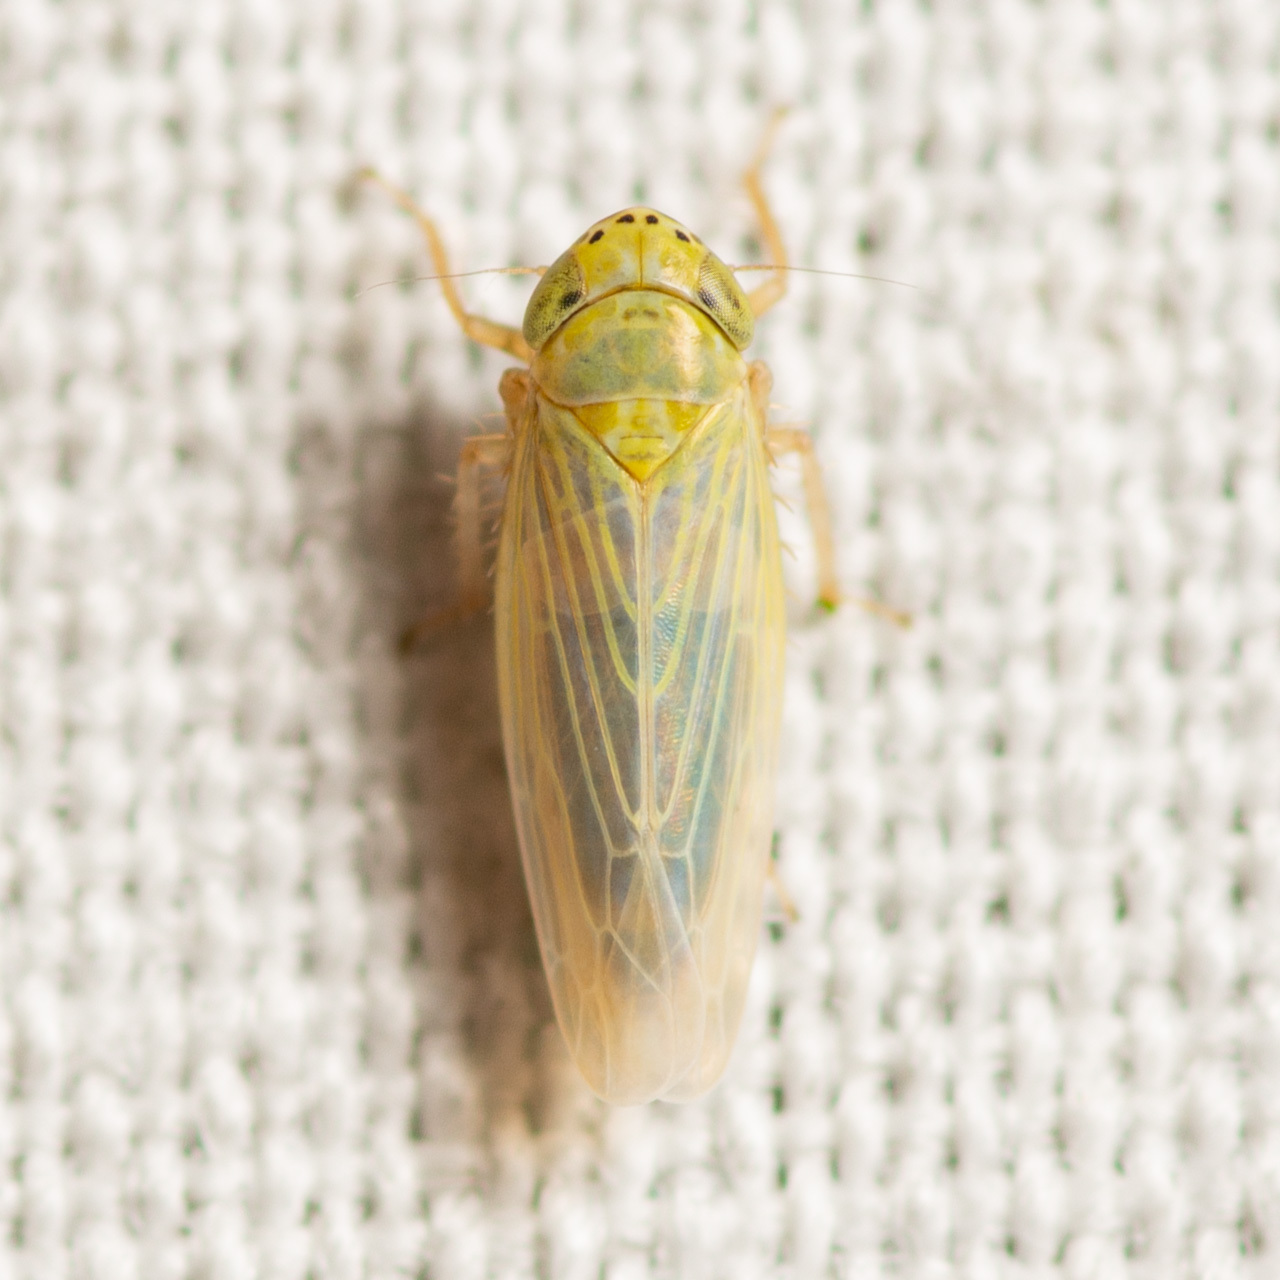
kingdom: Animalia
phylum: Arthropoda
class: Insecta
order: Hemiptera
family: Cicadellidae
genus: Graminella
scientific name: Graminella nigrifrons
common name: Blackfaced leafhopper
